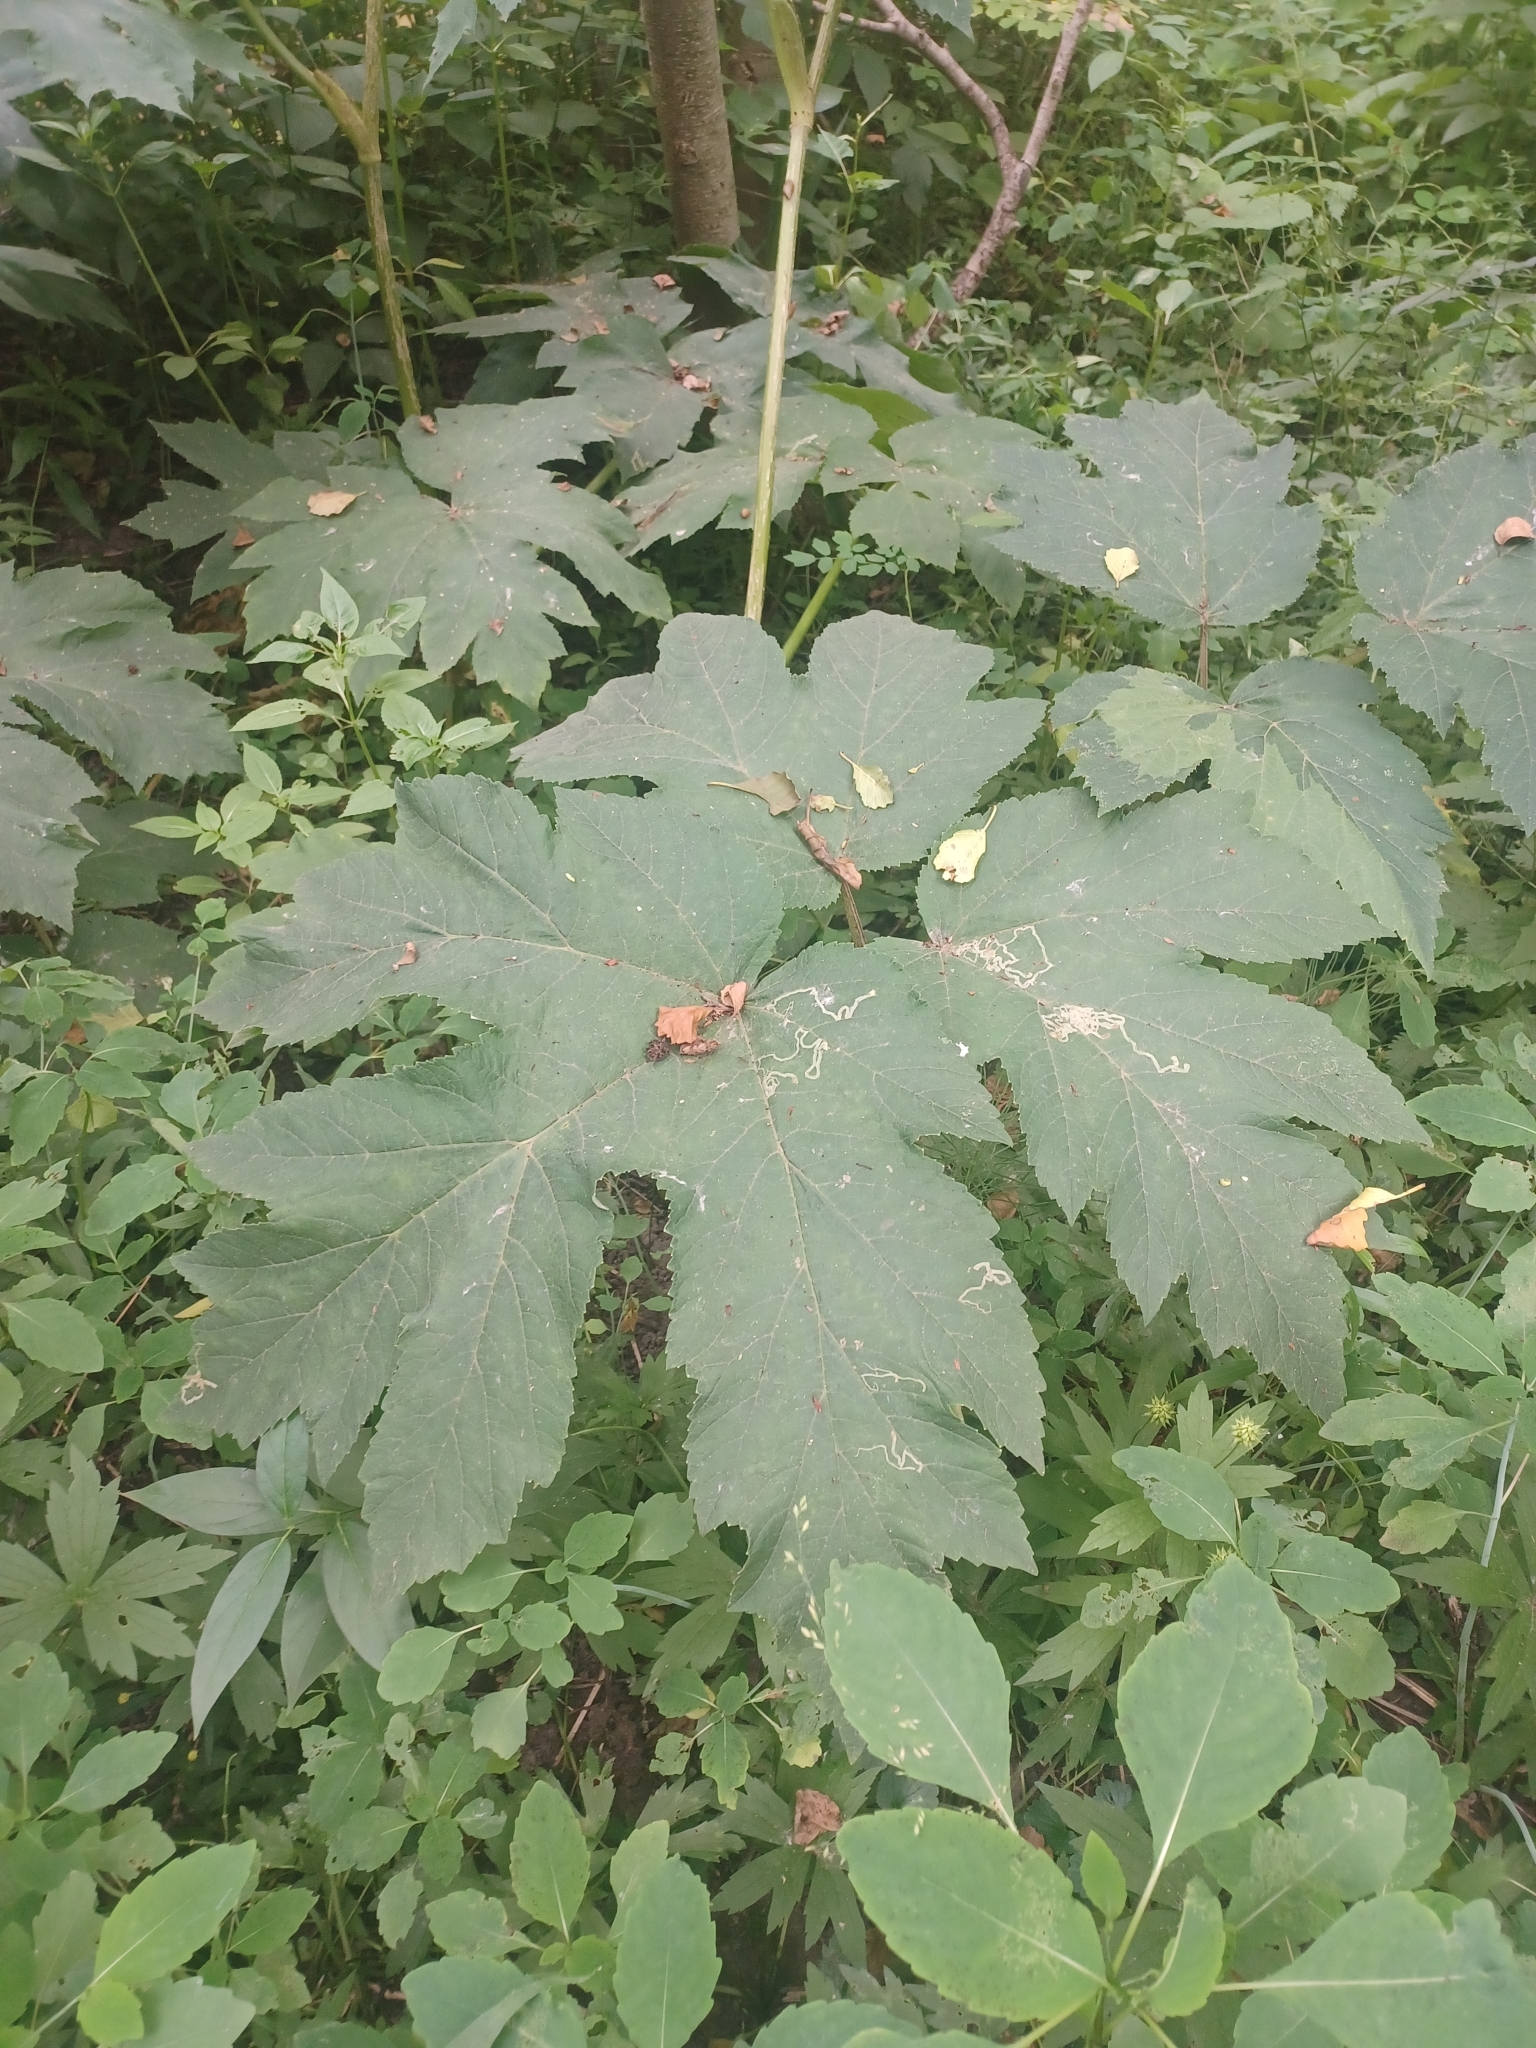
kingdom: Plantae
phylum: Tracheophyta
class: Magnoliopsida
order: Apiales
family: Apiaceae
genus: Heracleum
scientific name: Heracleum maximum
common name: American cow parsnip
